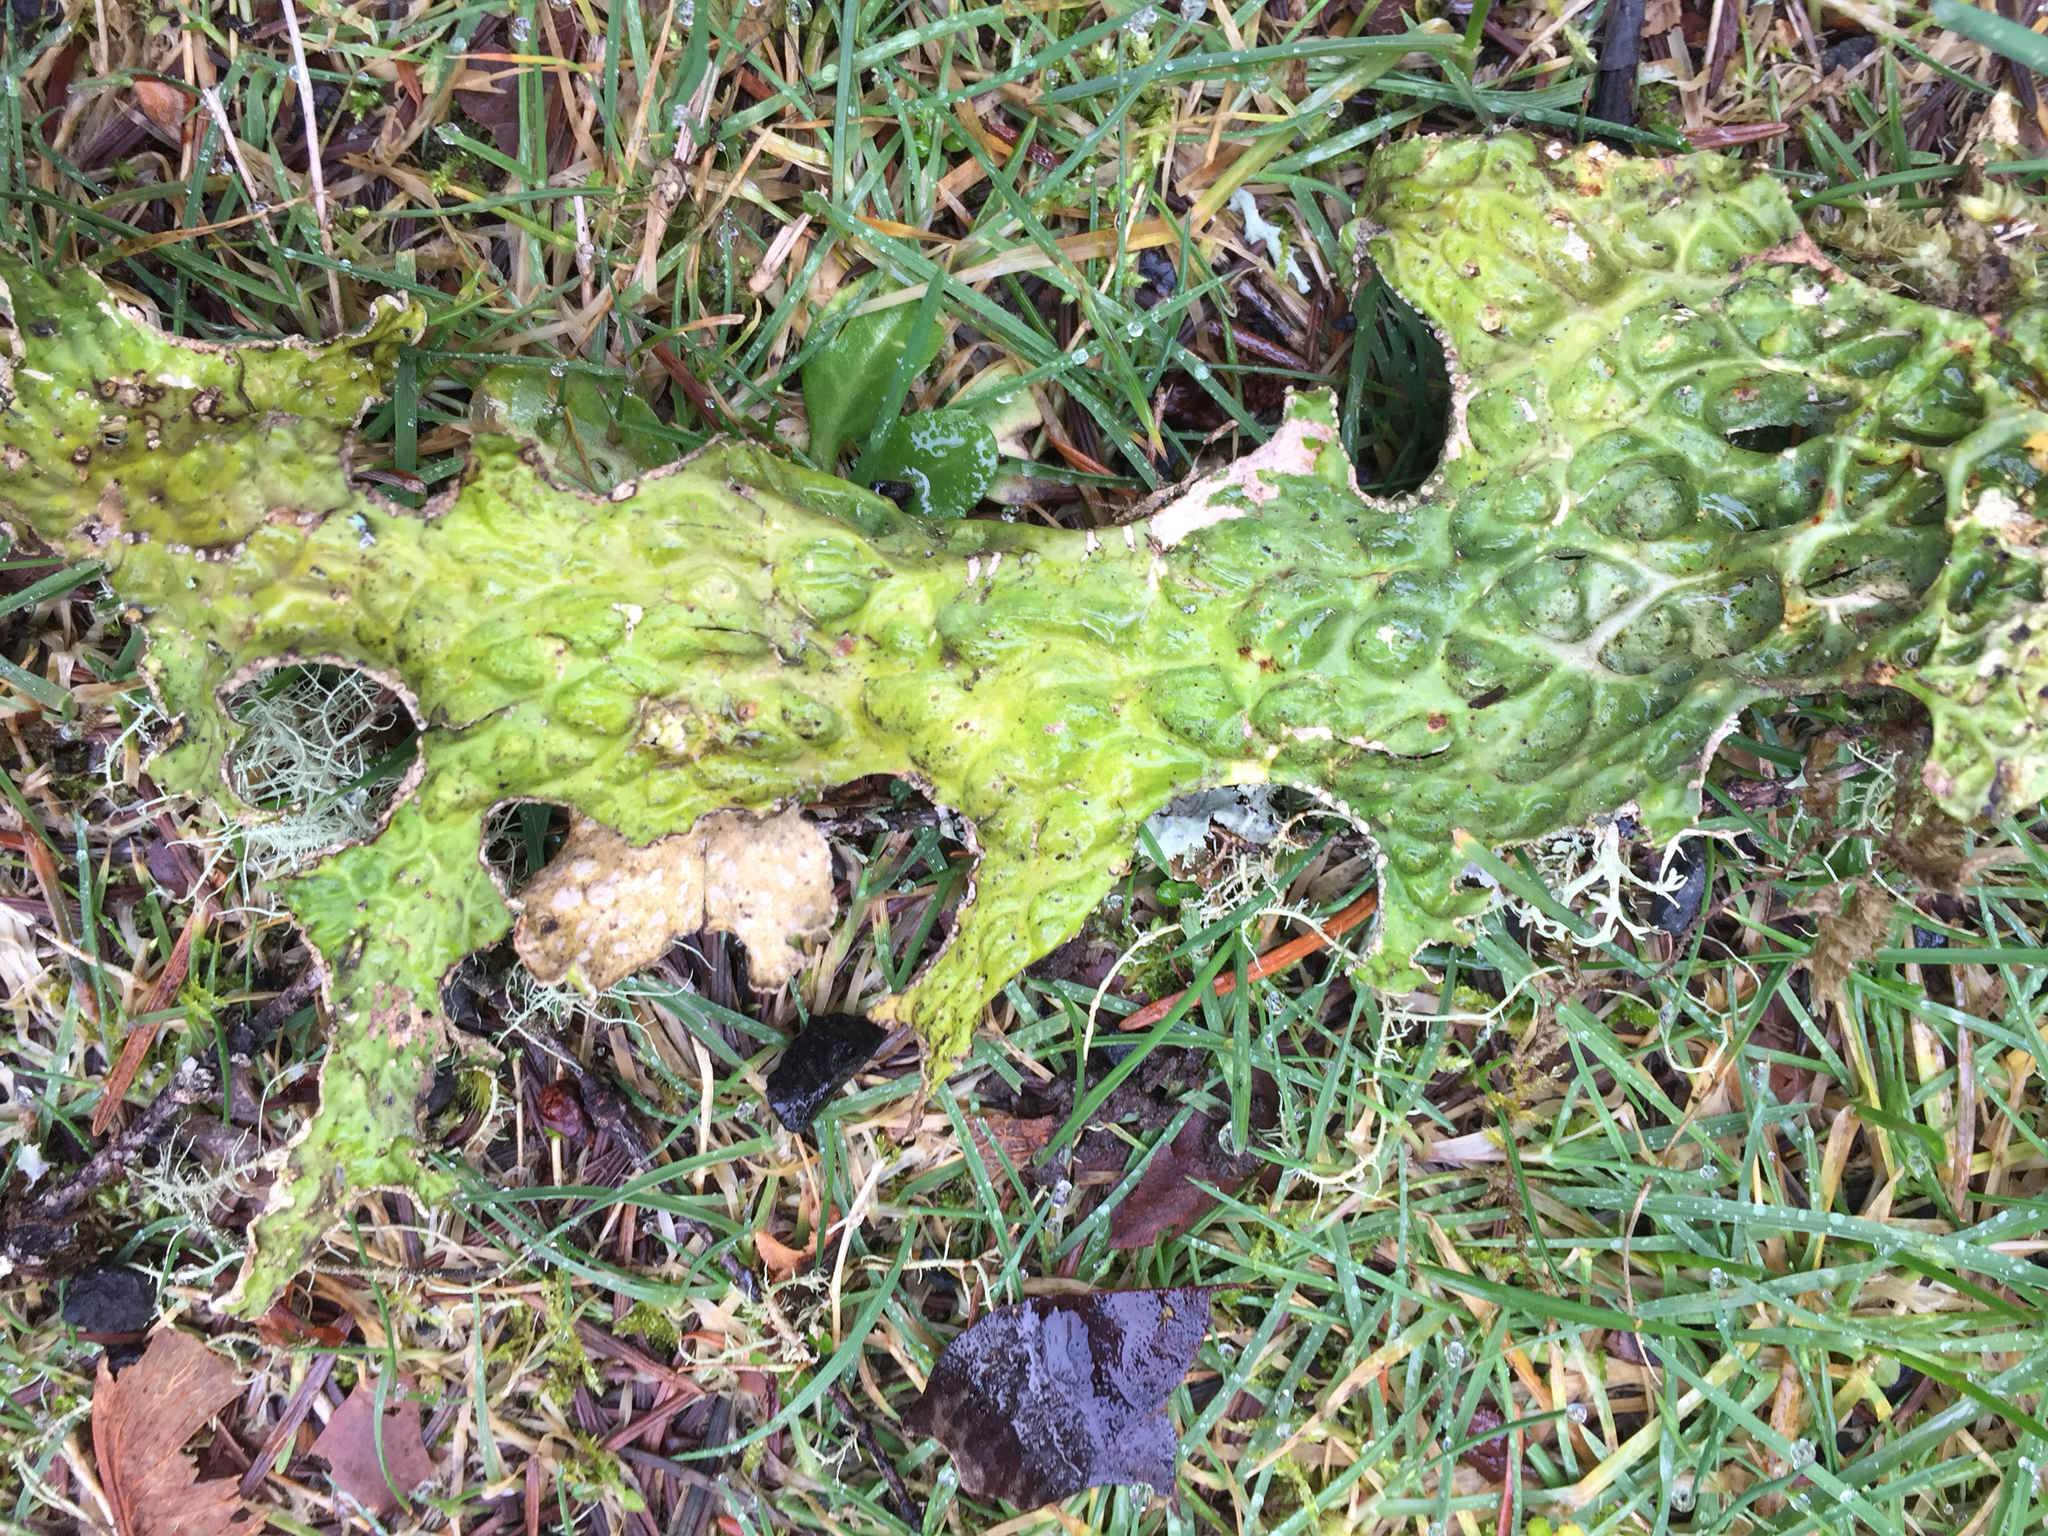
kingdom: Fungi
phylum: Ascomycota
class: Lecanoromycetes
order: Peltigerales
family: Lobariaceae
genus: Lobaria
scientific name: Lobaria pulmonaria
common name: Lungwort
